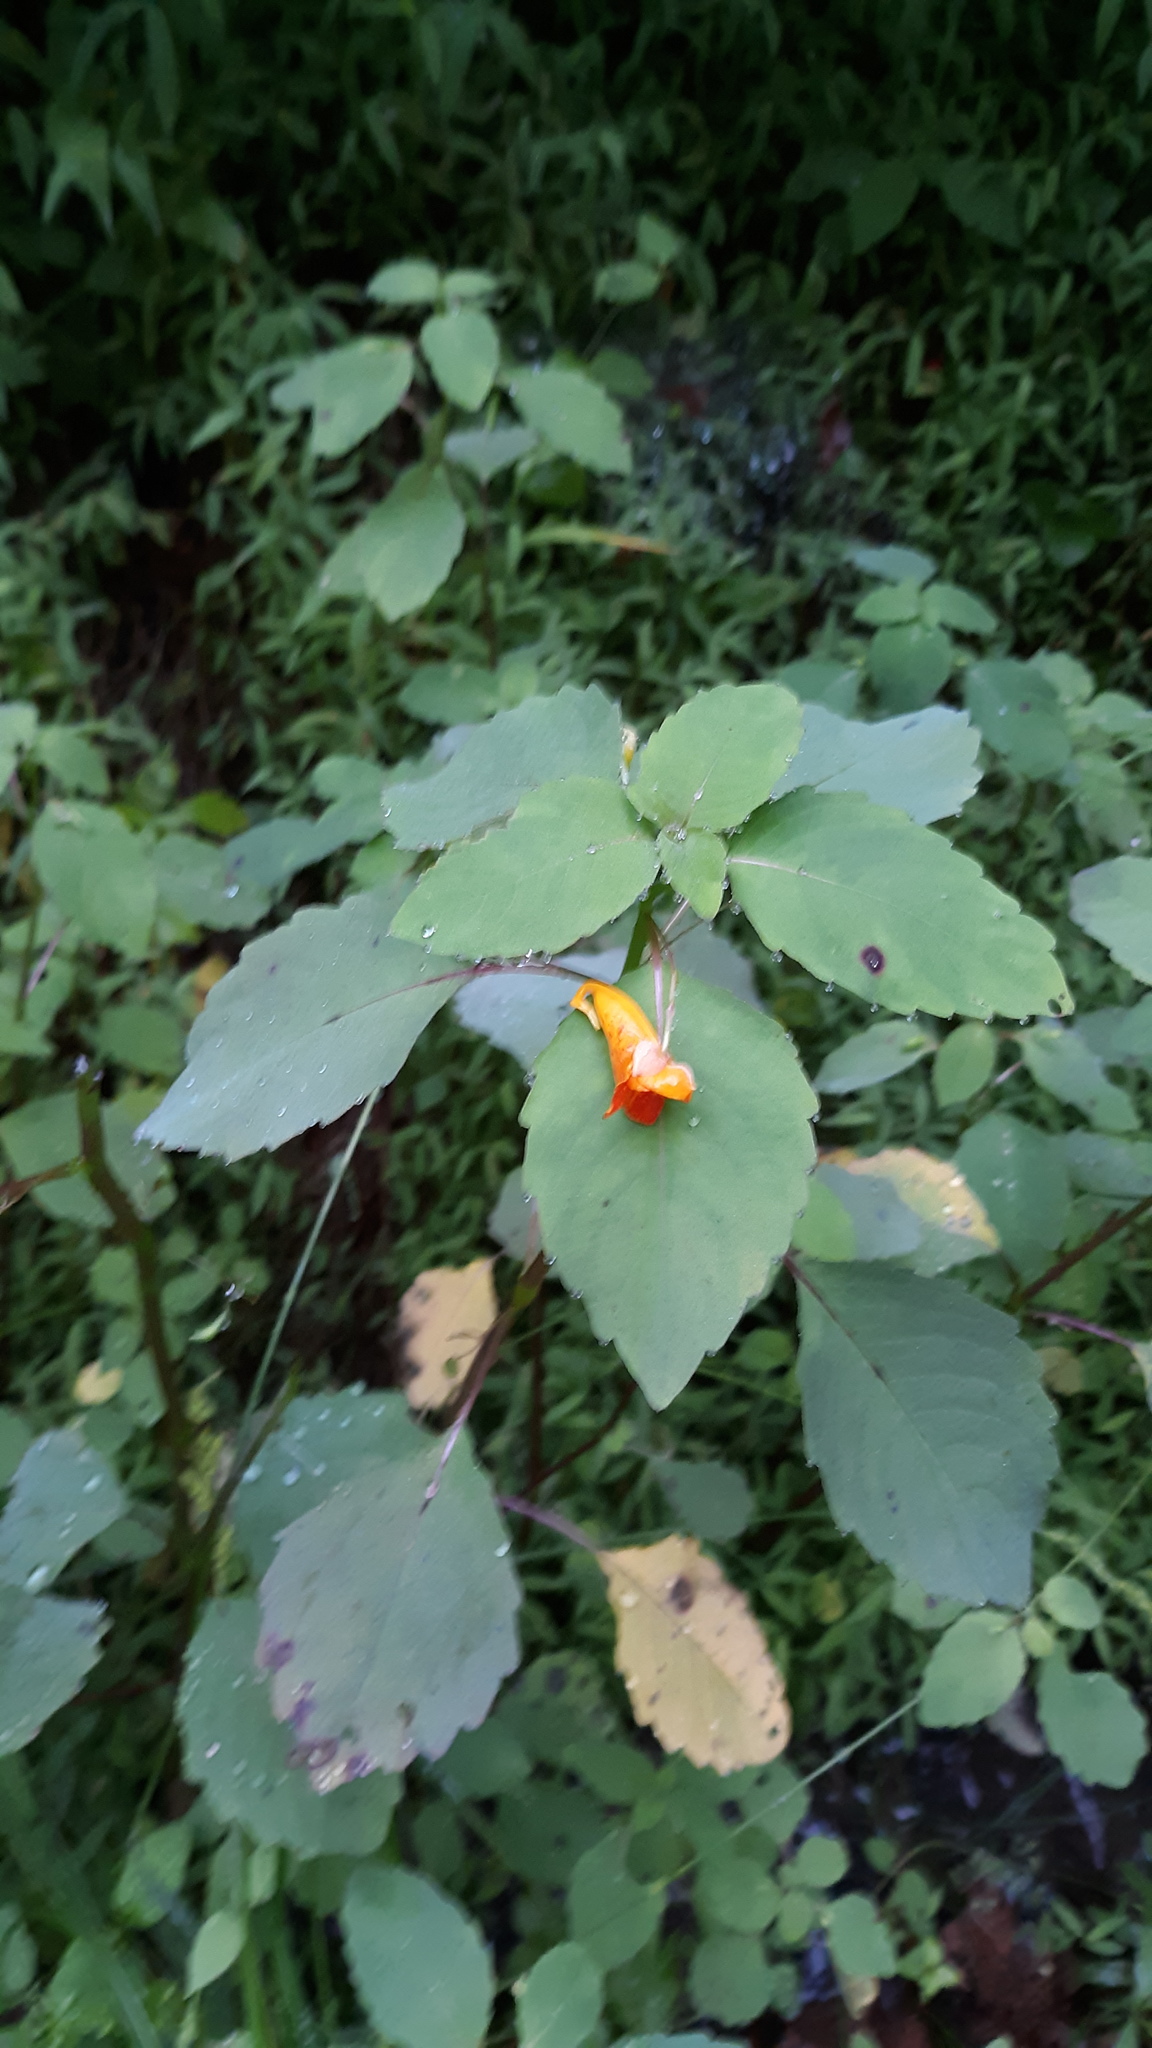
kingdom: Plantae
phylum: Tracheophyta
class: Magnoliopsida
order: Ericales
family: Balsaminaceae
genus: Impatiens
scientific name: Impatiens capensis
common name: Orange balsam
